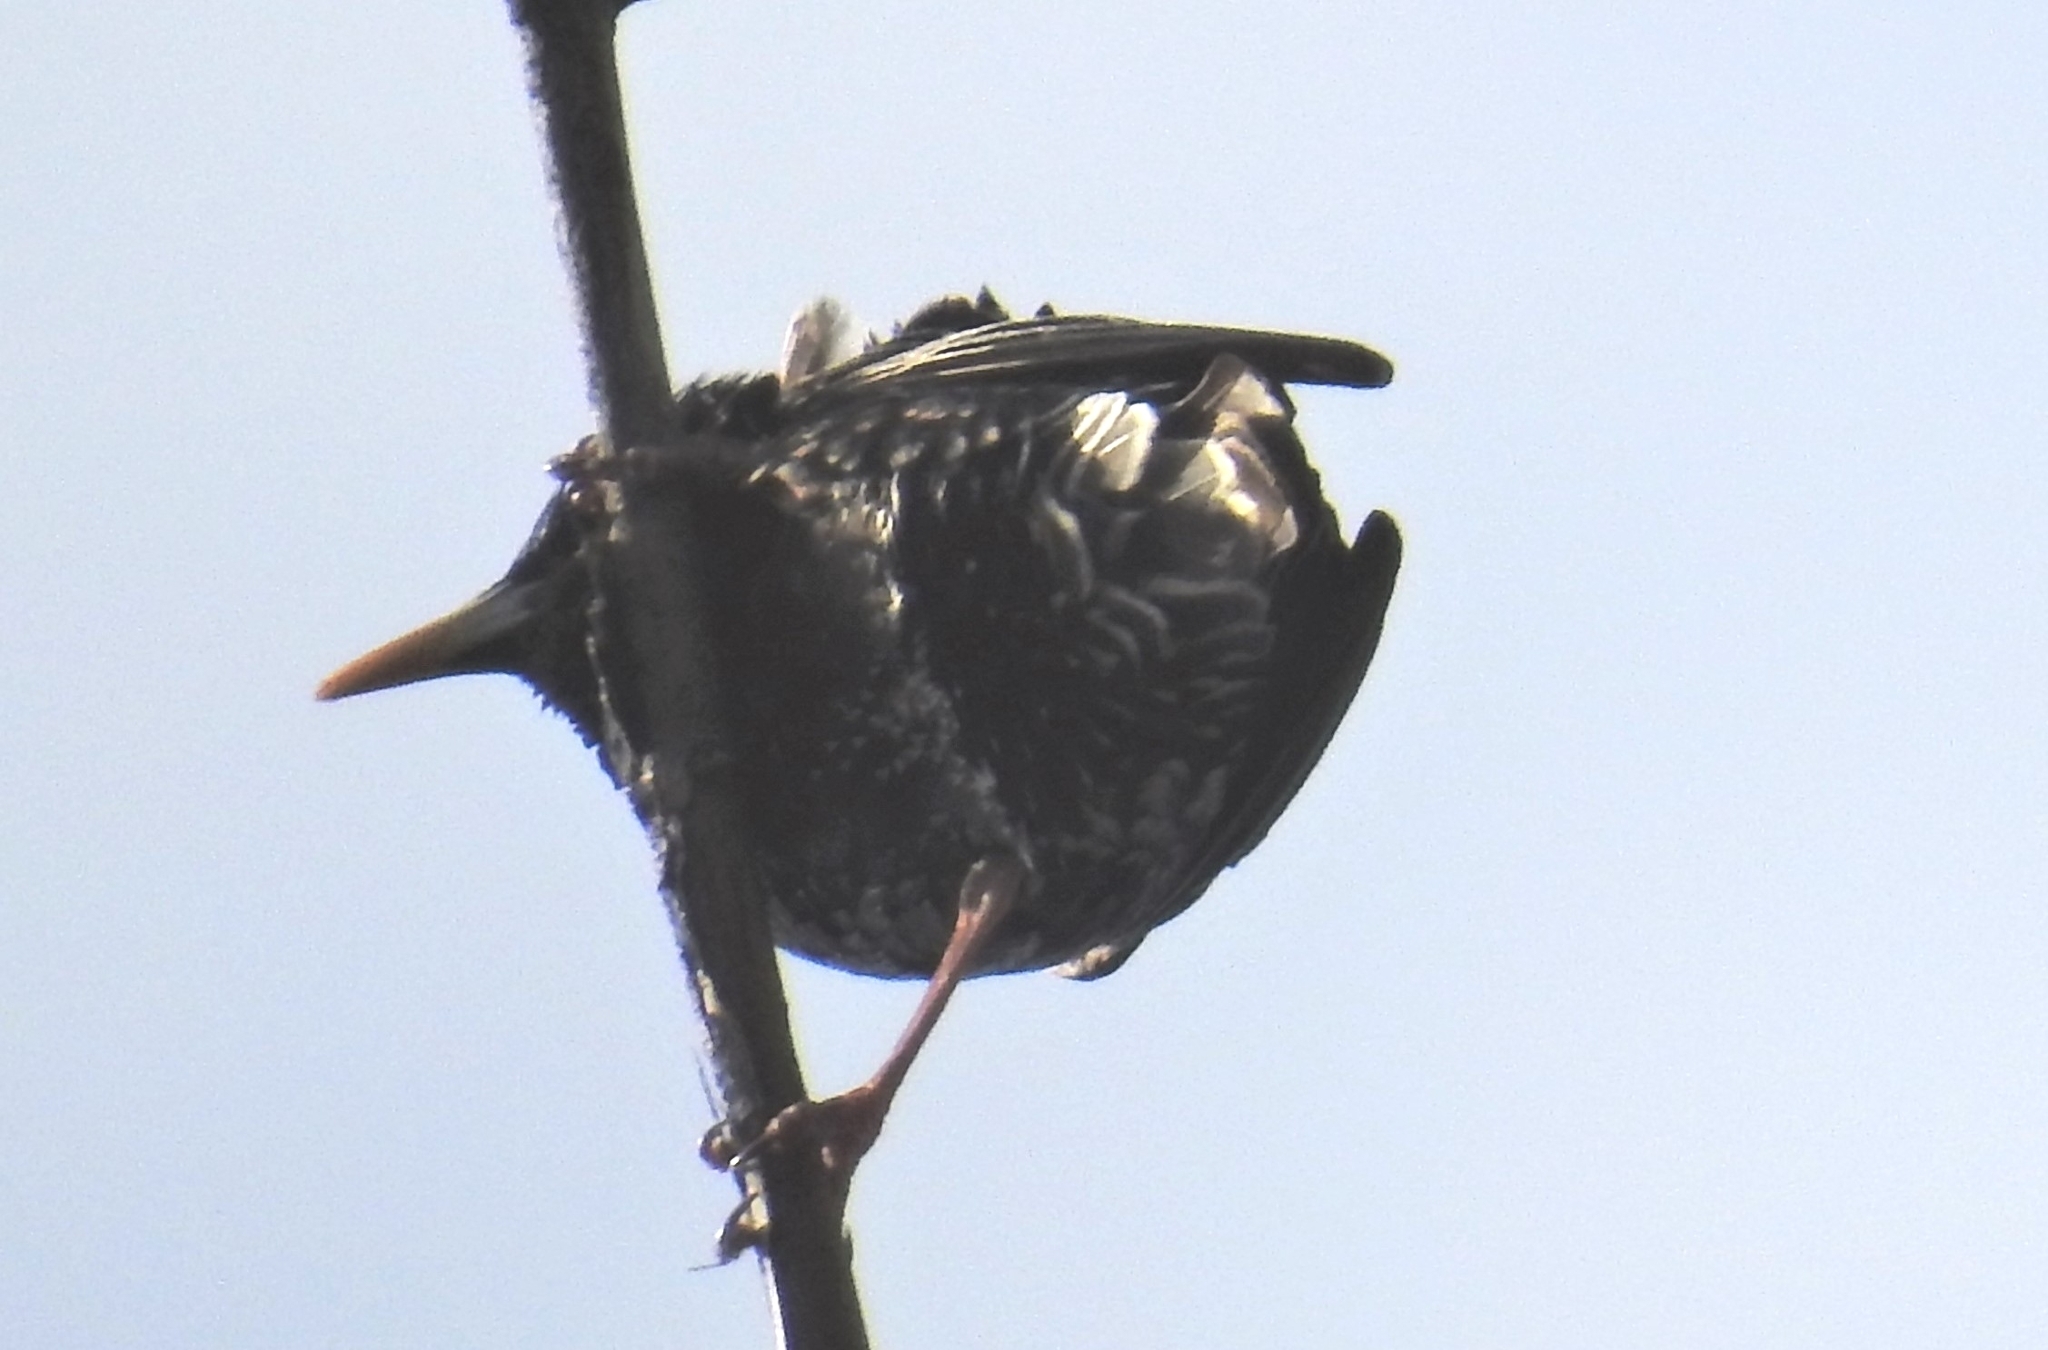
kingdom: Animalia
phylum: Chordata
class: Aves
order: Passeriformes
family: Sturnidae
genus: Sturnus
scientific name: Sturnus vulgaris
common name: Common starling
